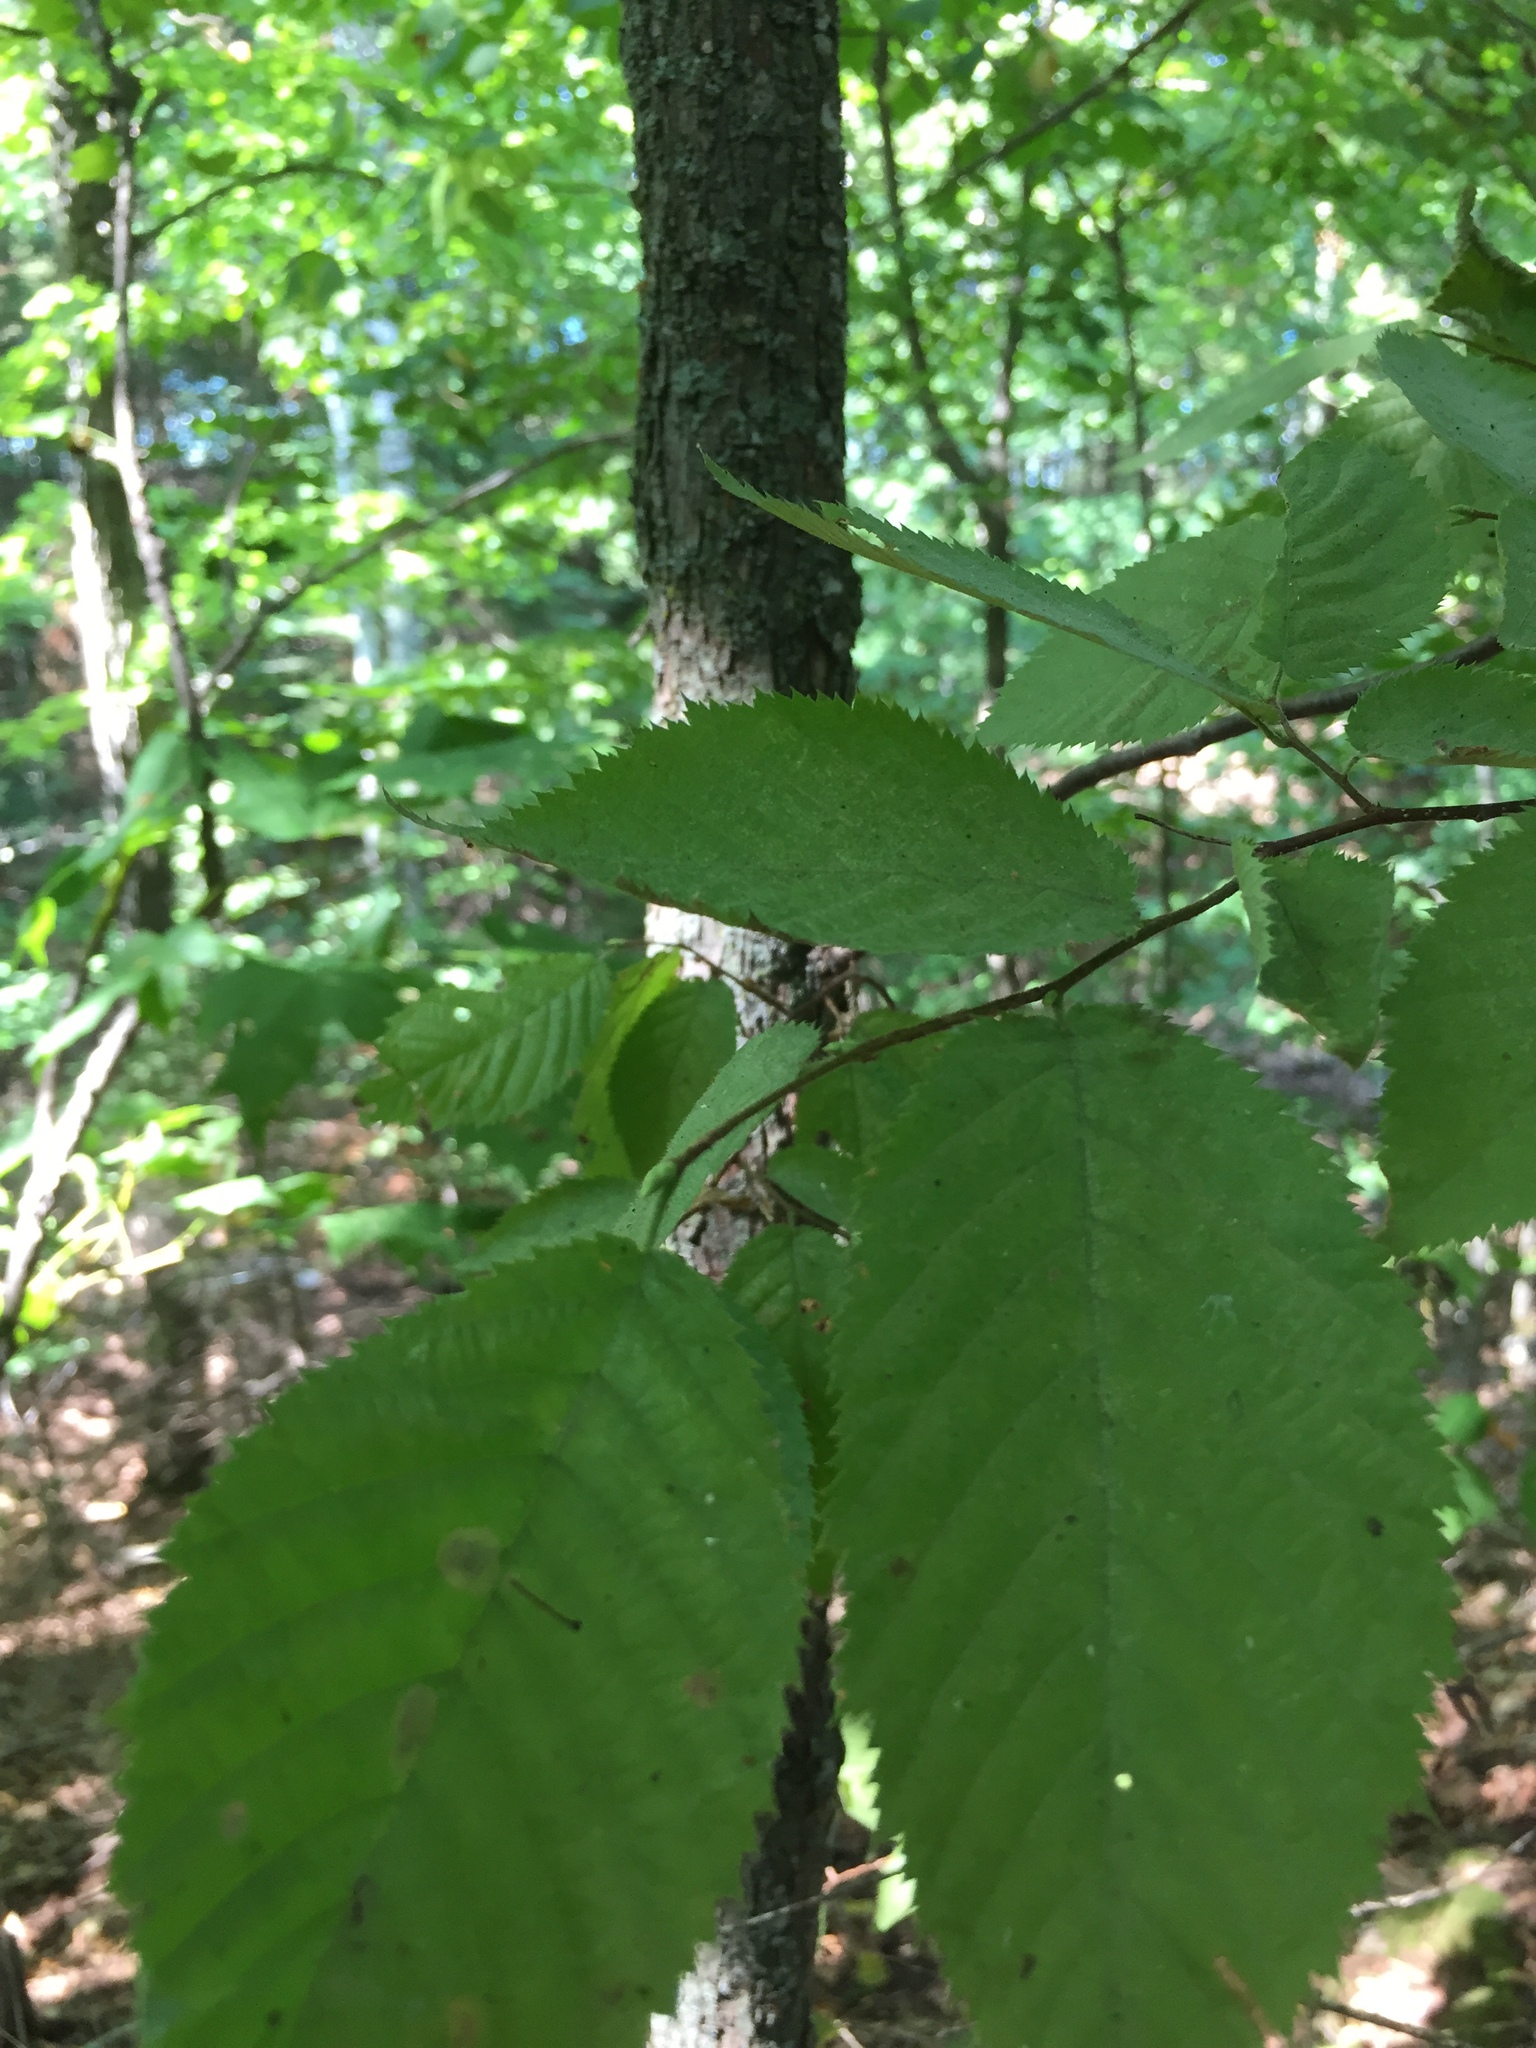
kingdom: Plantae
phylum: Tracheophyta
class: Magnoliopsida
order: Fagales
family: Betulaceae
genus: Ostrya
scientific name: Ostrya virginiana
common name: Ironwood
